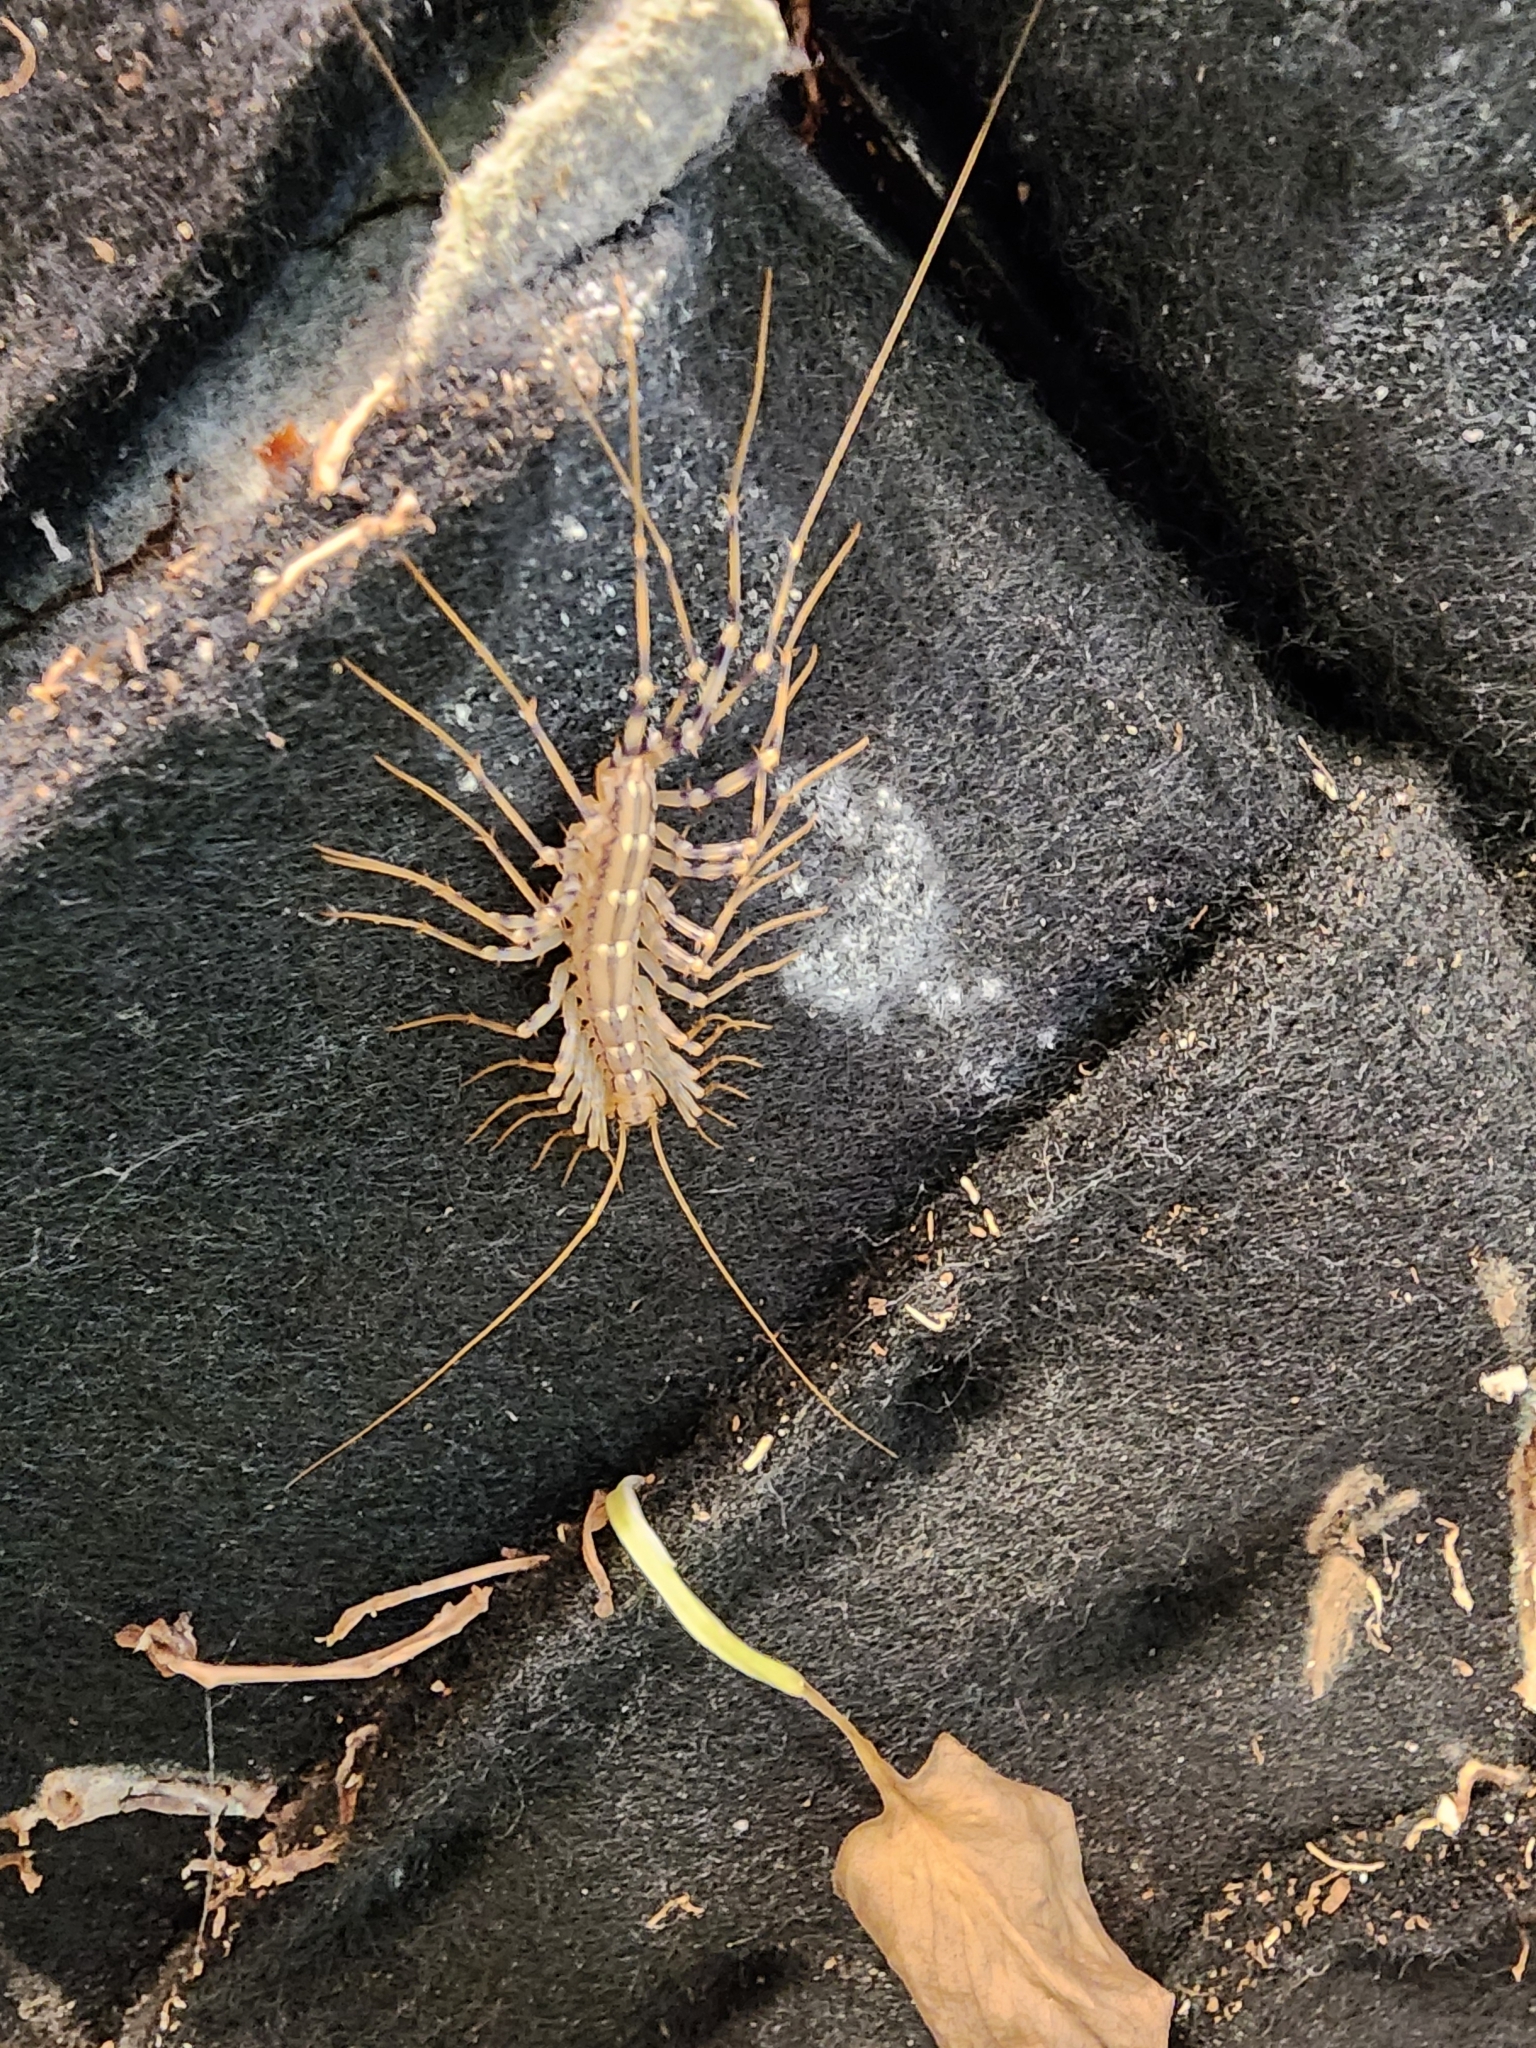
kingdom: Animalia
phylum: Arthropoda
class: Chilopoda
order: Scutigeromorpha
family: Scutigeridae
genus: Scutigera
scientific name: Scutigera coleoptrata
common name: House centipede
